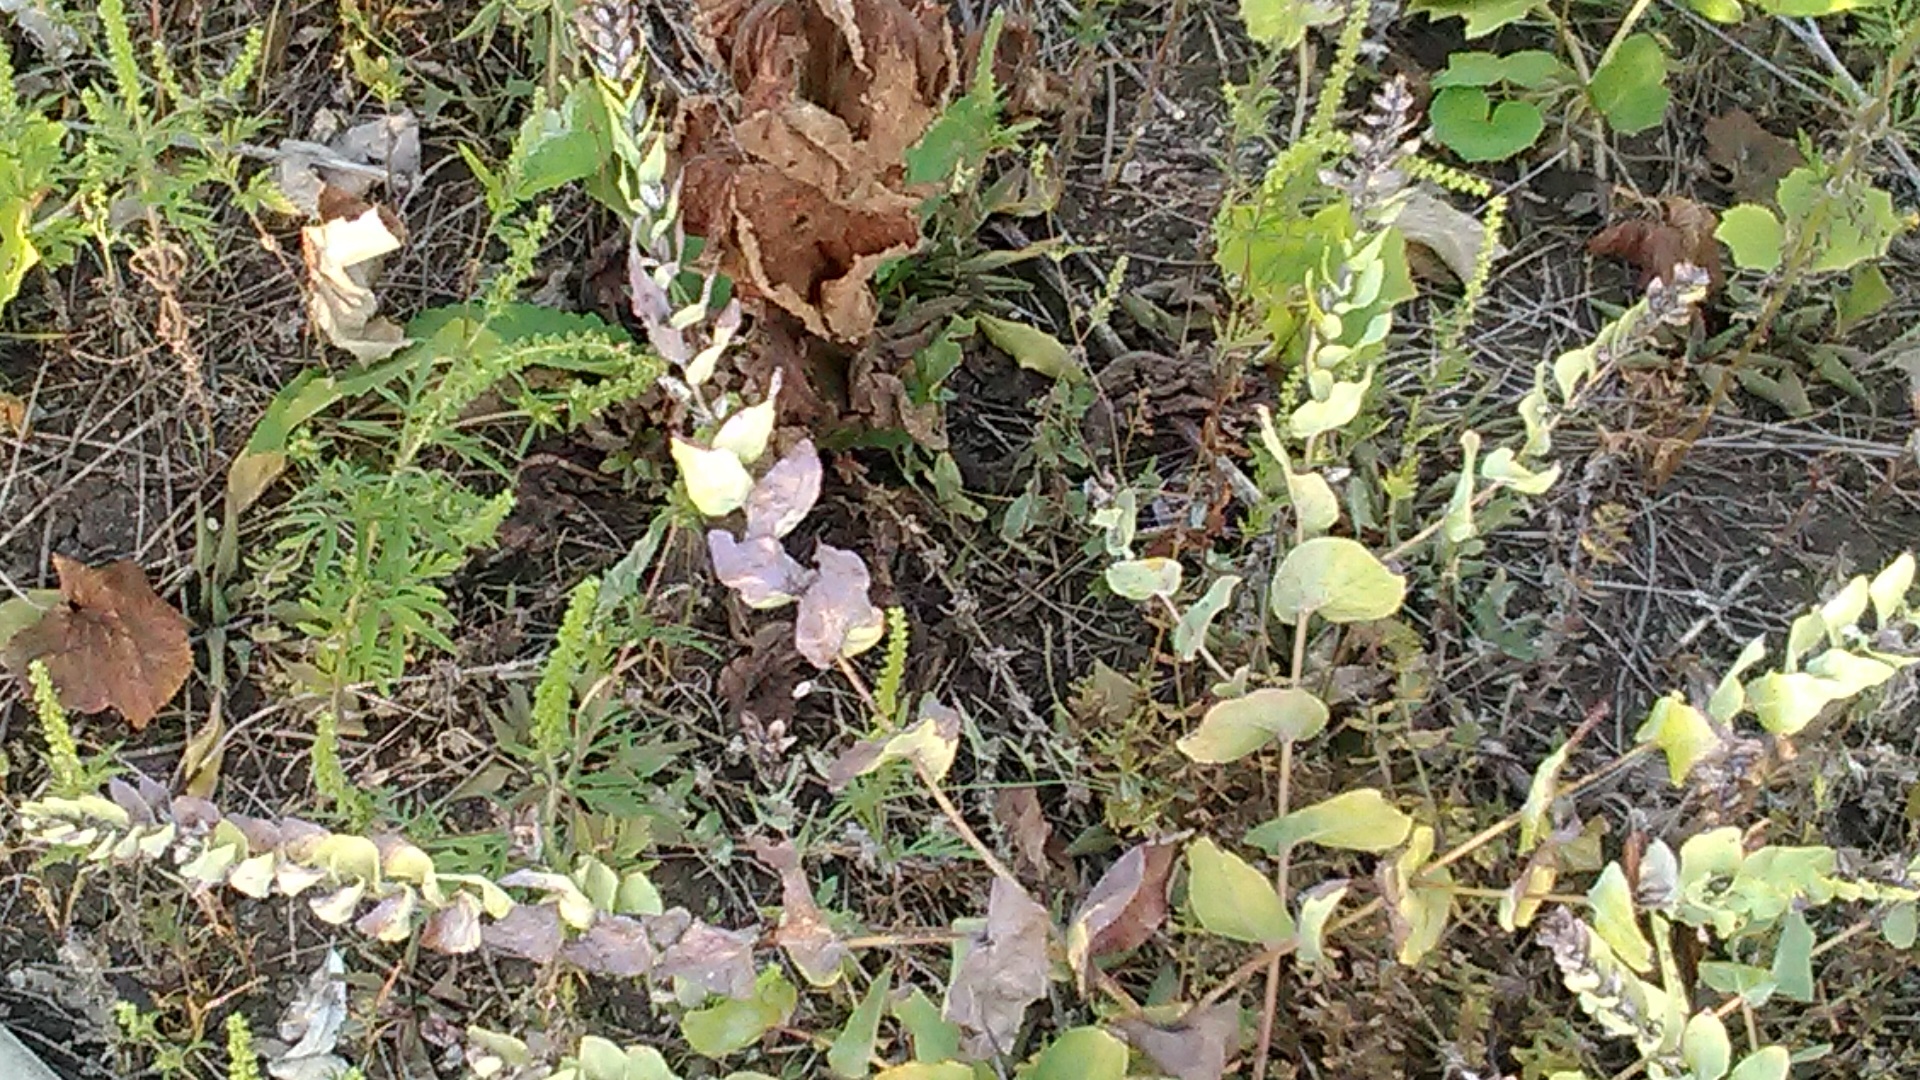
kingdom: Plantae
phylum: Tracheophyta
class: Magnoliopsida
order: Boraginales
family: Boraginaceae
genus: Cerinthe
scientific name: Cerinthe minor
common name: Lesser honeywort
